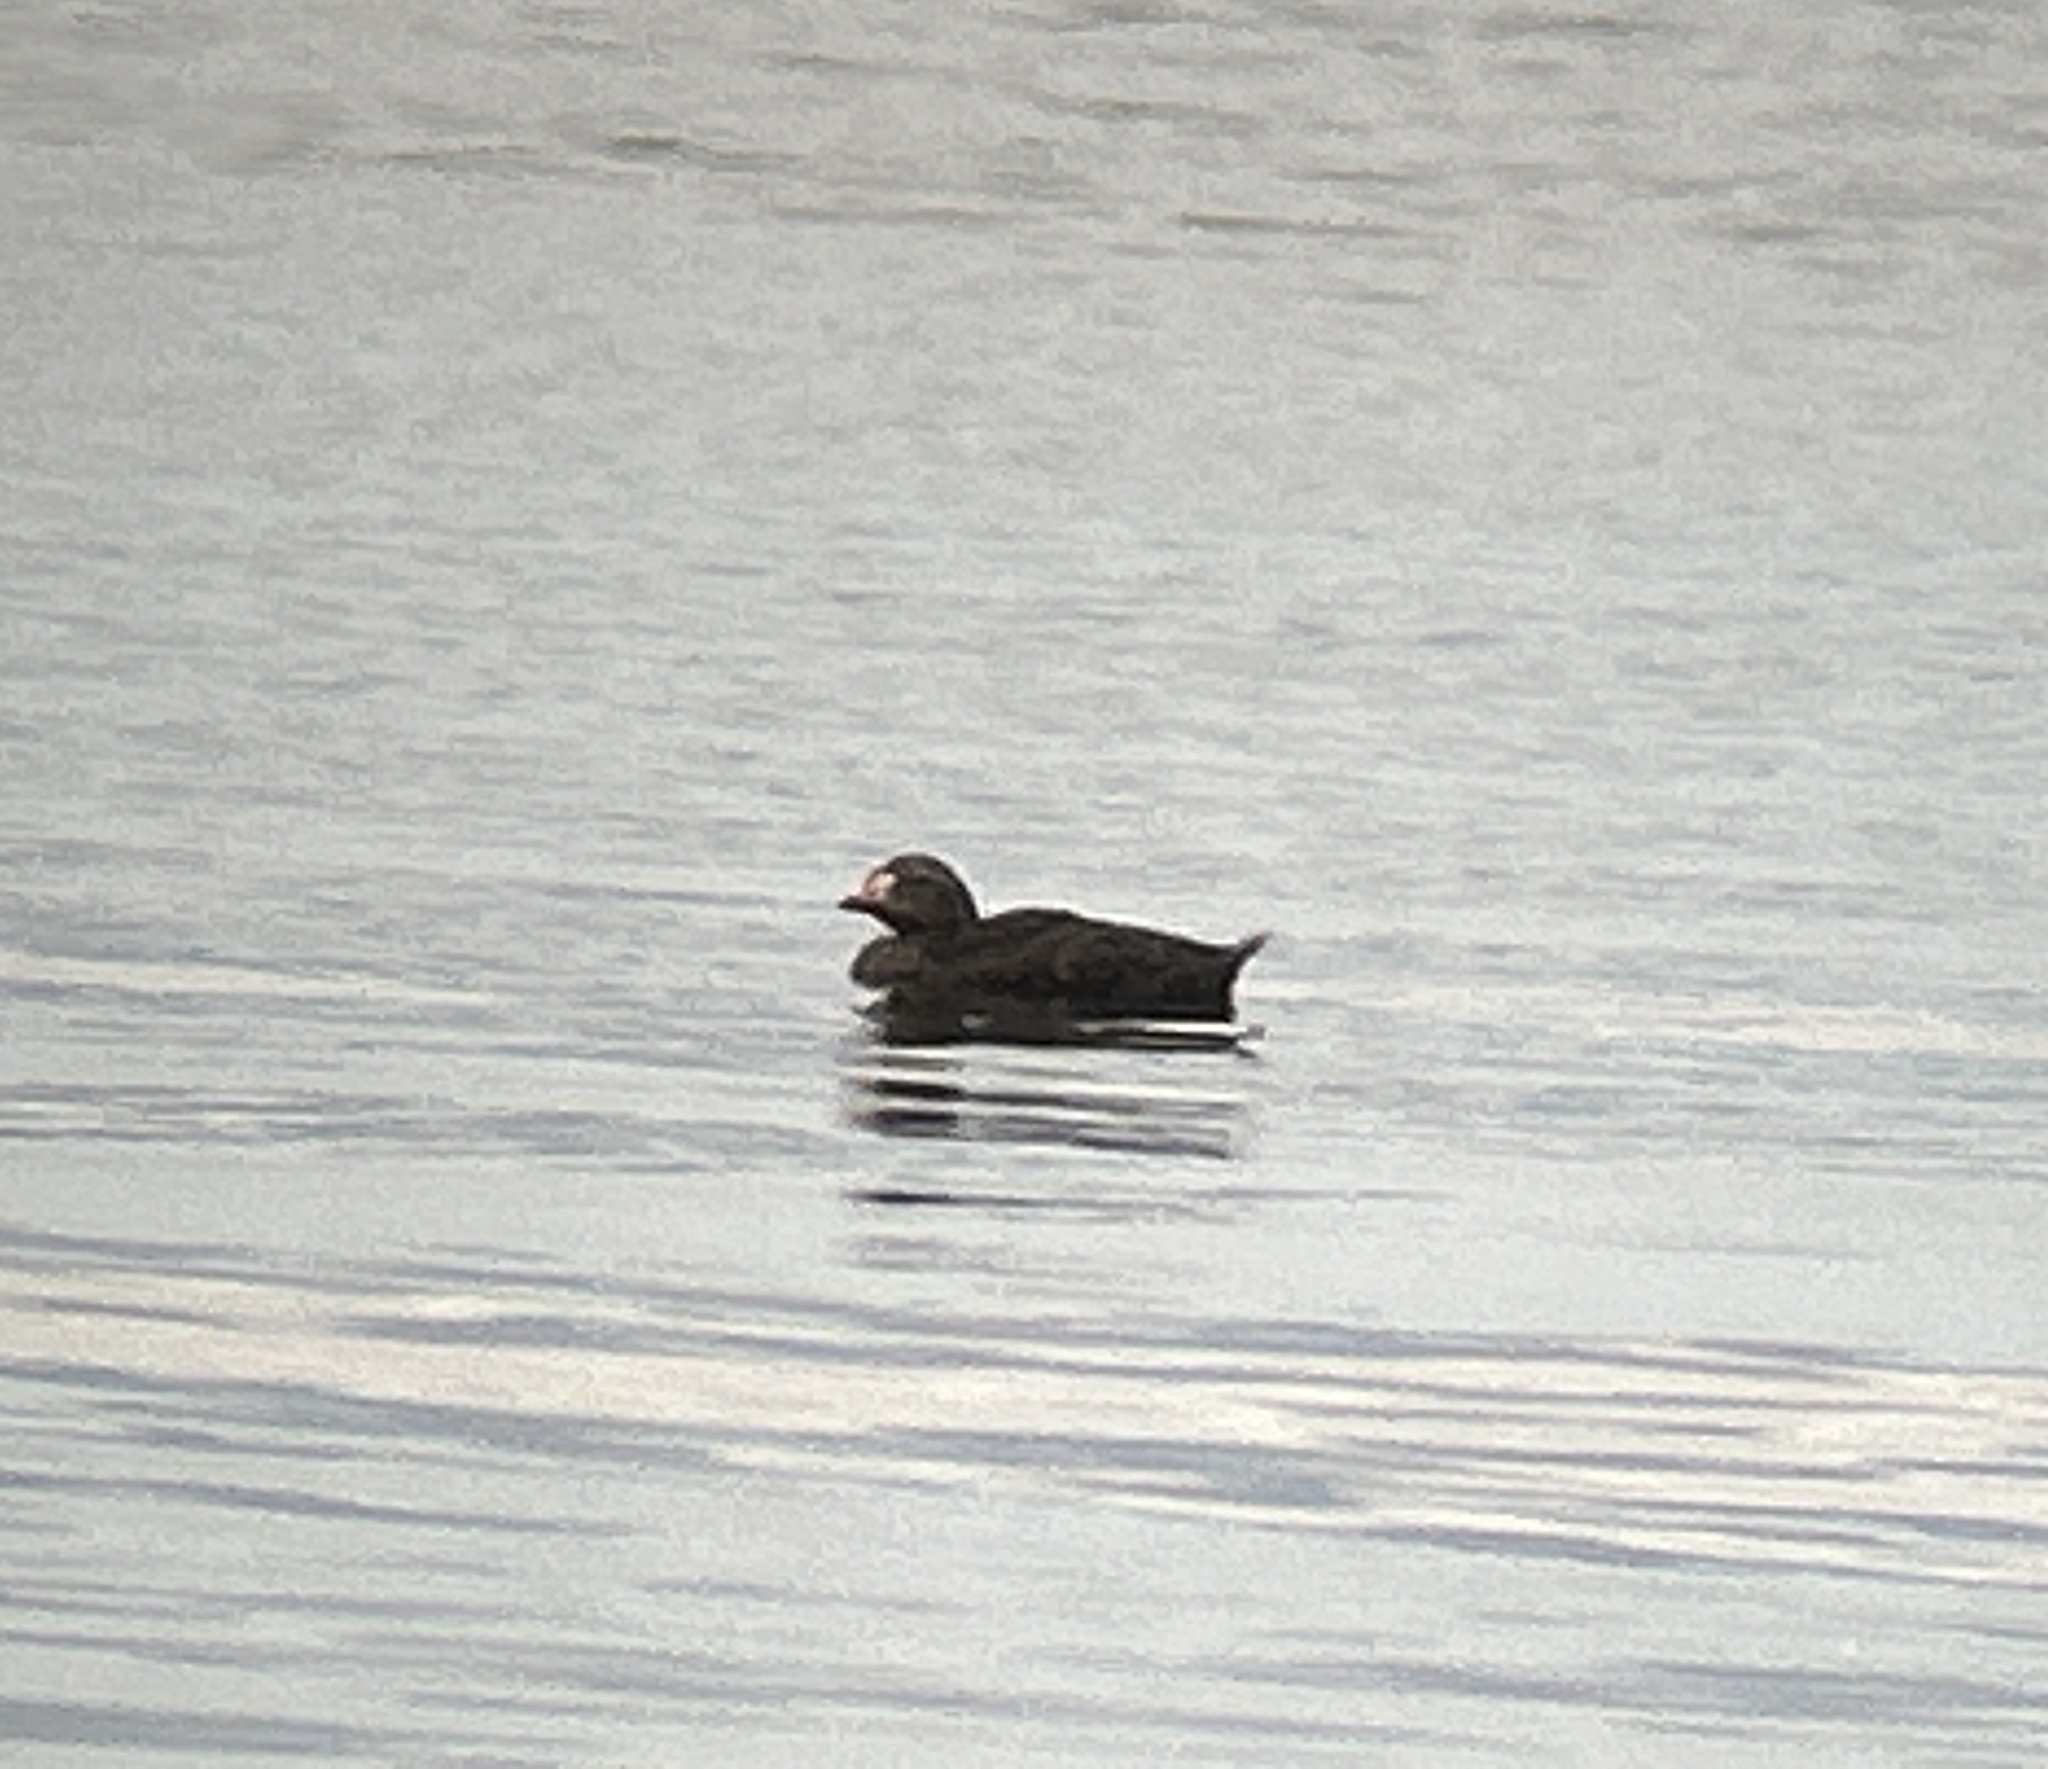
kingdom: Animalia
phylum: Chordata
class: Aves
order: Anseriformes
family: Anatidae
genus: Somateria
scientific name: Somateria spectabilis
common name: King eider
